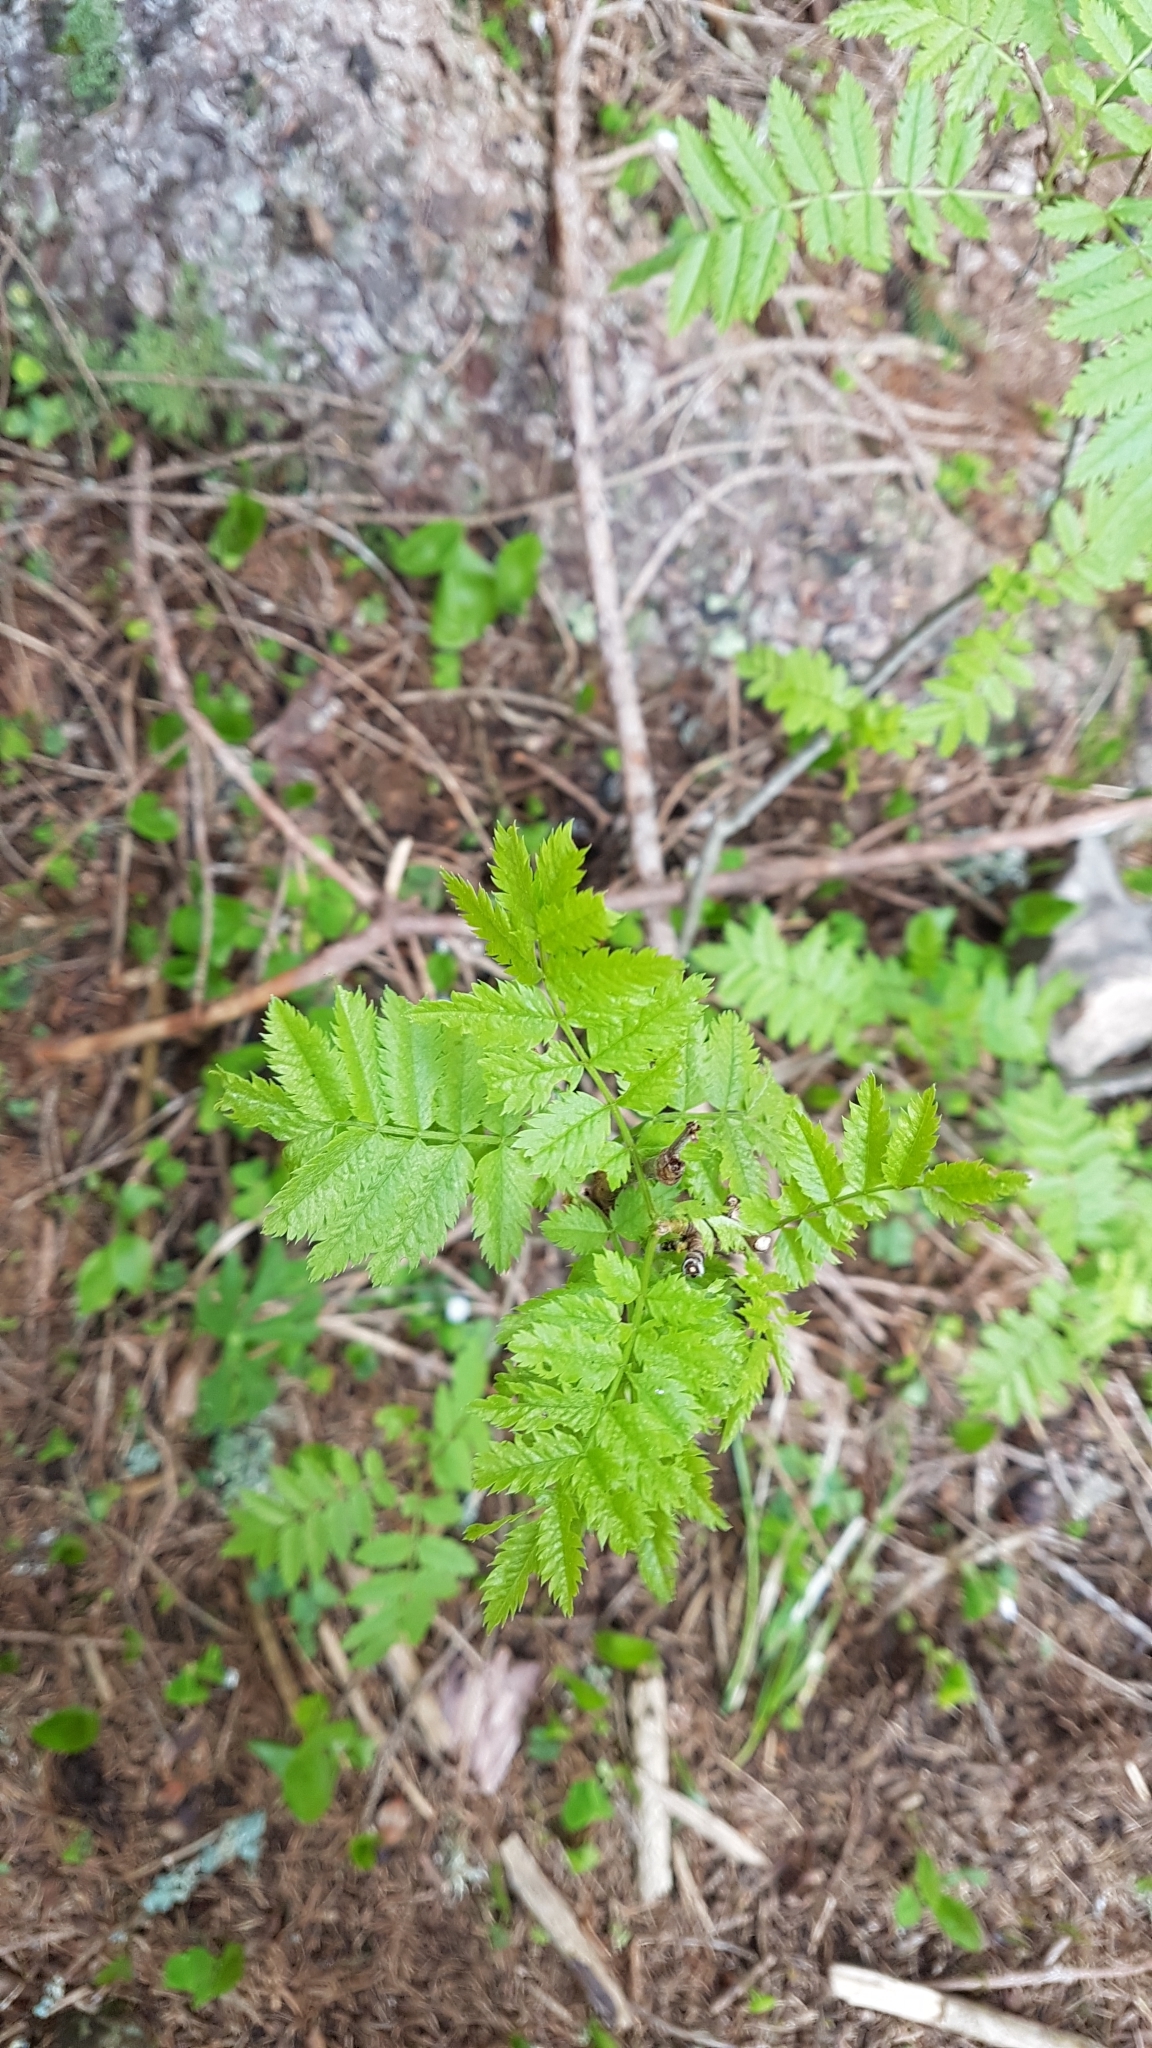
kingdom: Plantae
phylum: Tracheophyta
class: Magnoliopsida
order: Rosales
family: Rosaceae
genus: Sorbus
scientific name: Sorbus aucuparia
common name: Rowan
